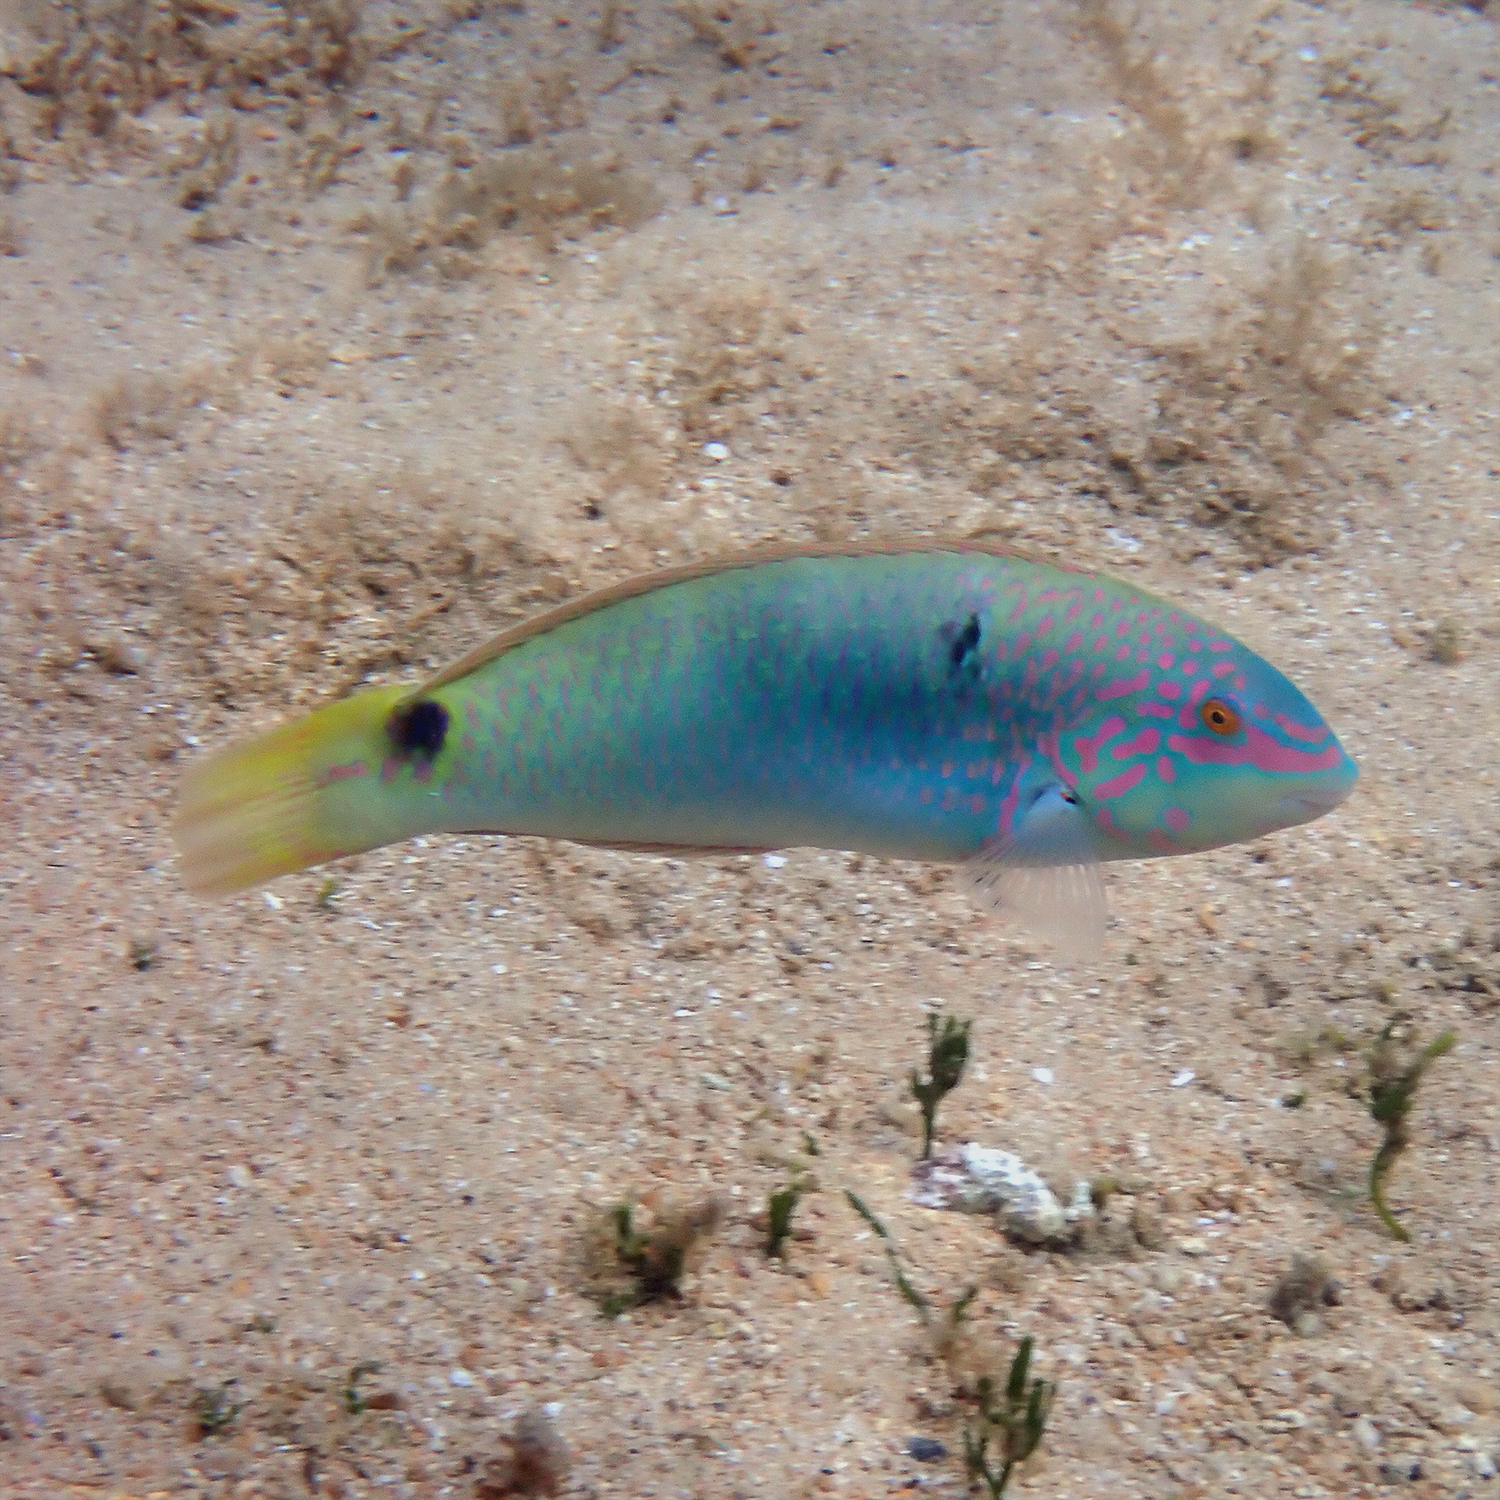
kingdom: Animalia
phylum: Chordata
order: Perciformes
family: Labridae
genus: Halichoeres
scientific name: Halichoeres trimaculatus
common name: Three-spot wrasse
